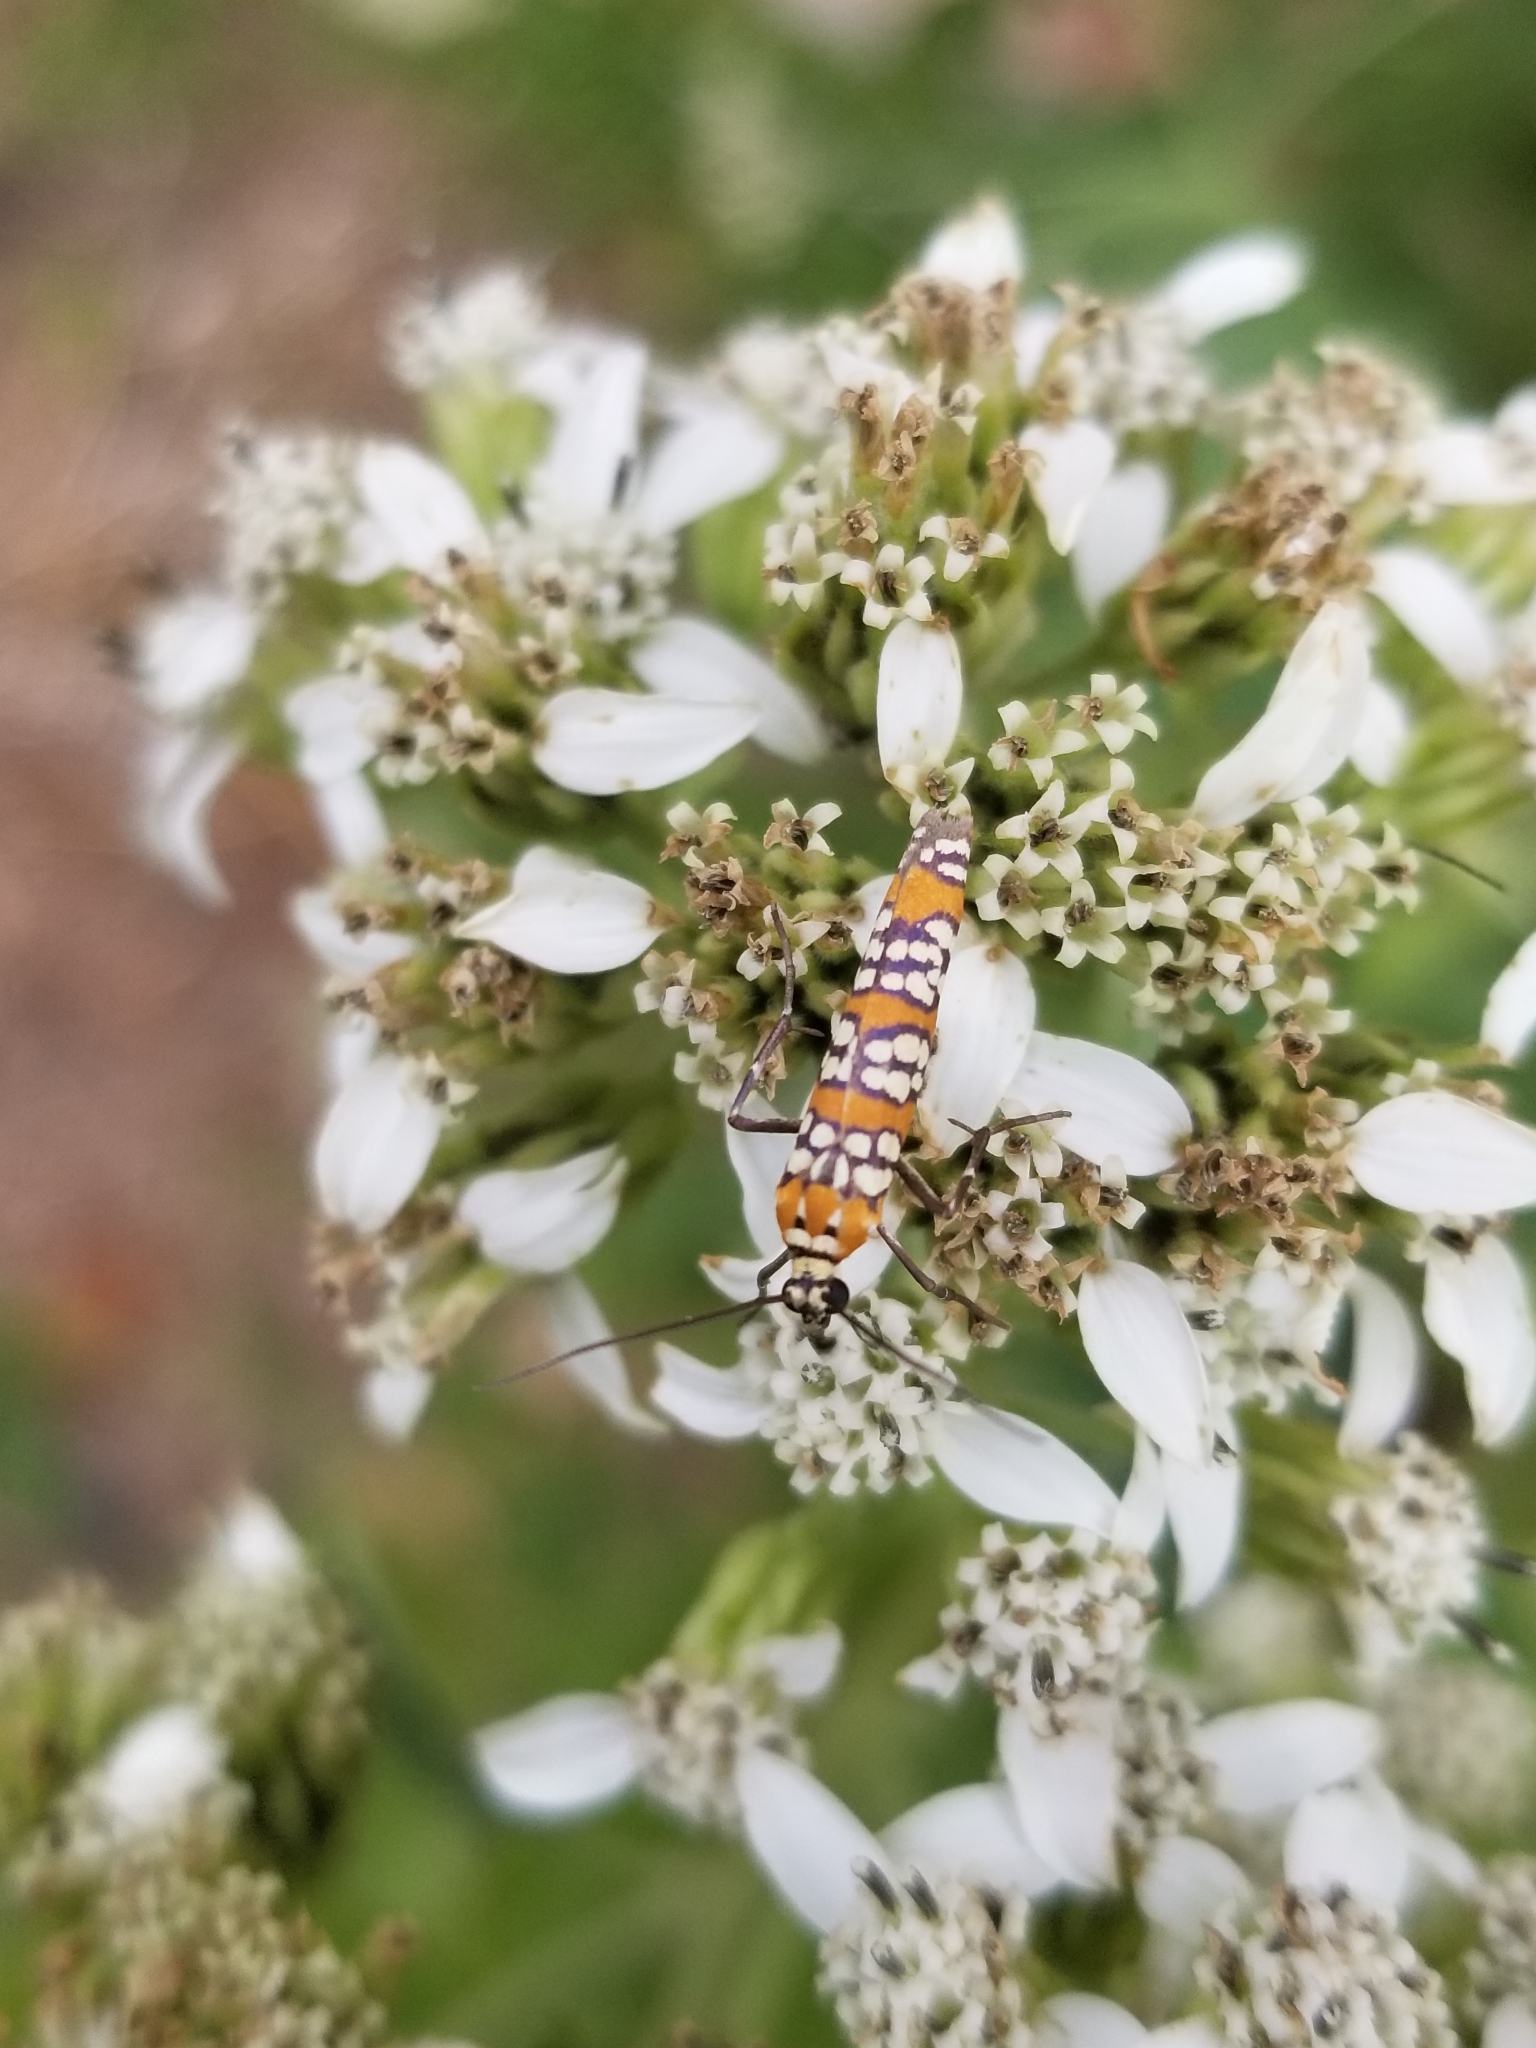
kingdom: Animalia
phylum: Arthropoda
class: Insecta
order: Lepidoptera
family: Attevidae
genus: Atteva
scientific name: Atteva punctella
